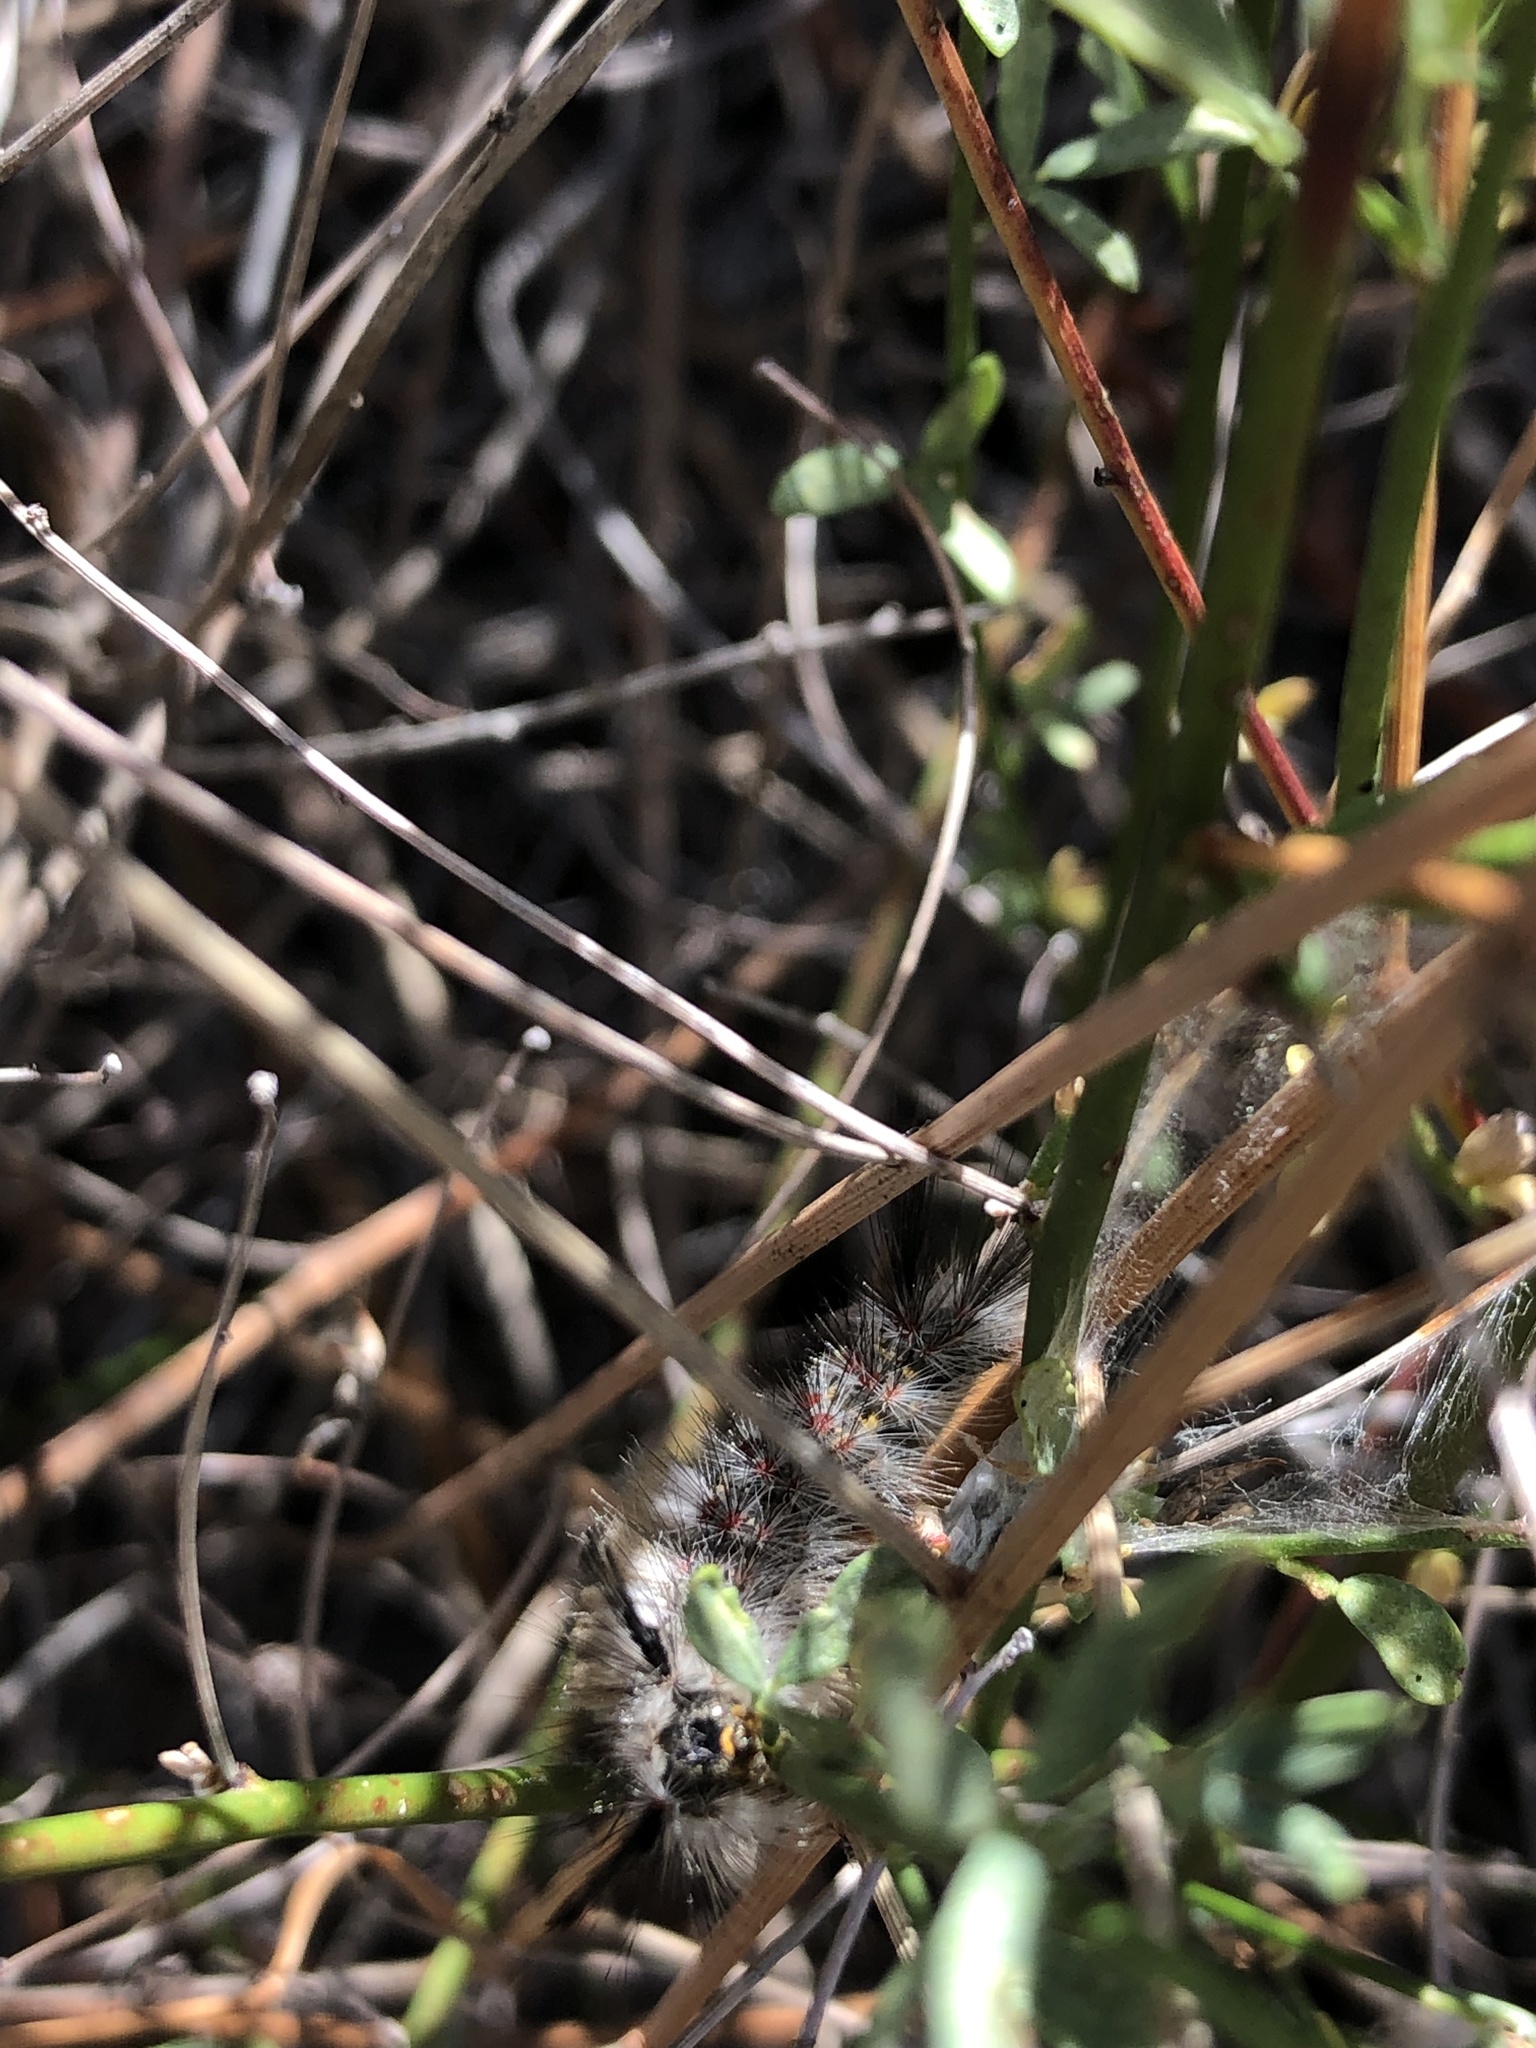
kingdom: Animalia
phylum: Arthropoda
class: Insecta
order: Lepidoptera
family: Erebidae
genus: Orgyia
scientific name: Orgyia vetusta
